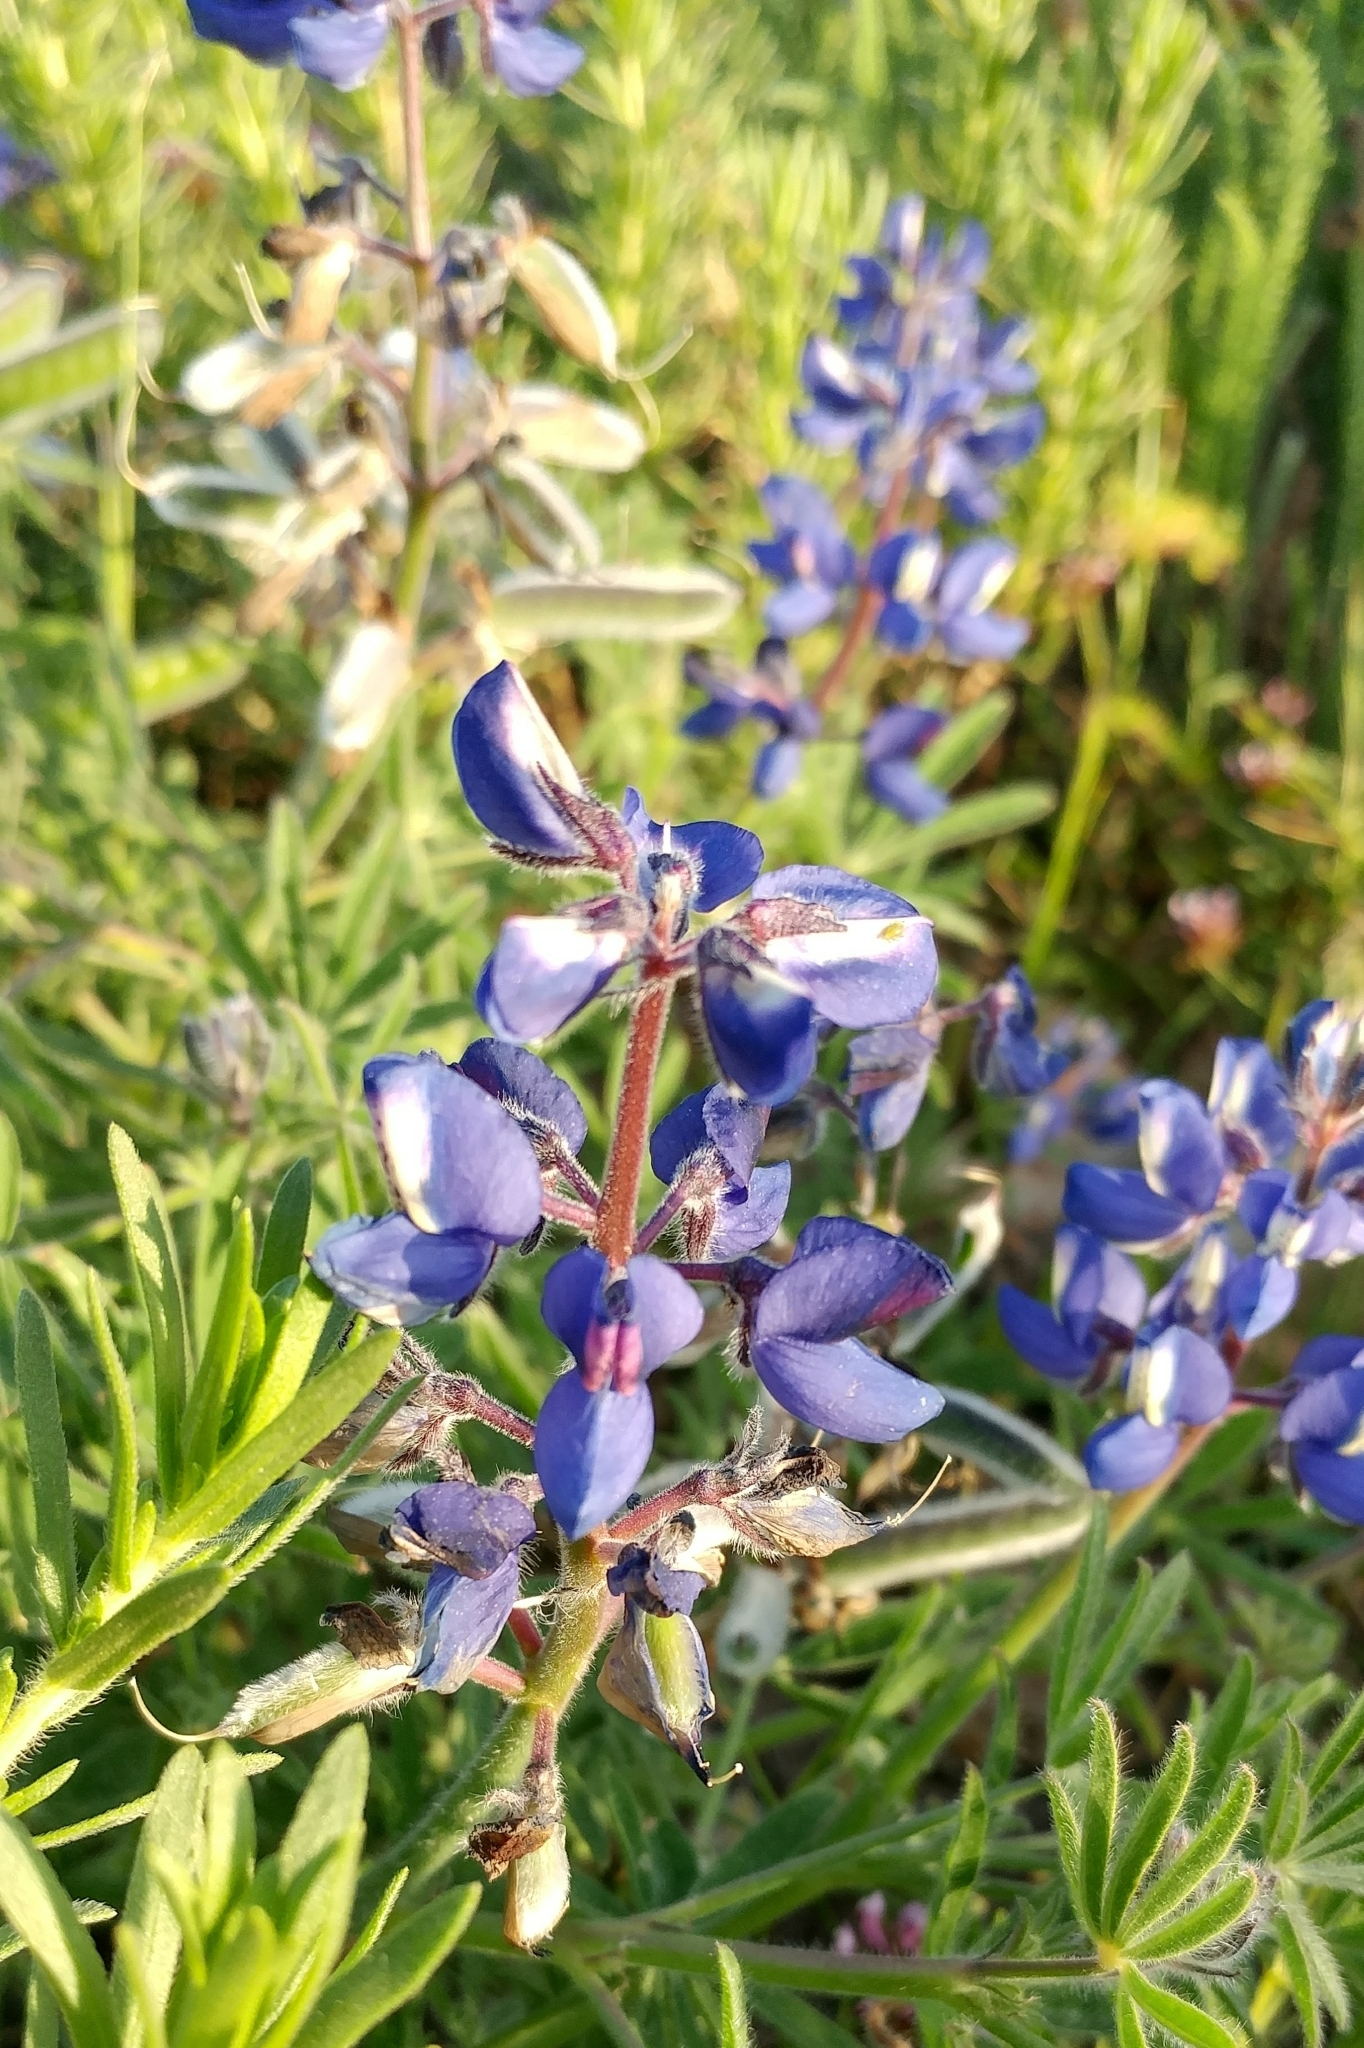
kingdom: Plantae
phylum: Tracheophyta
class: Magnoliopsida
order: Fabales
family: Fabaceae
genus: Lupinus
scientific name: Lupinus guadalupensis
